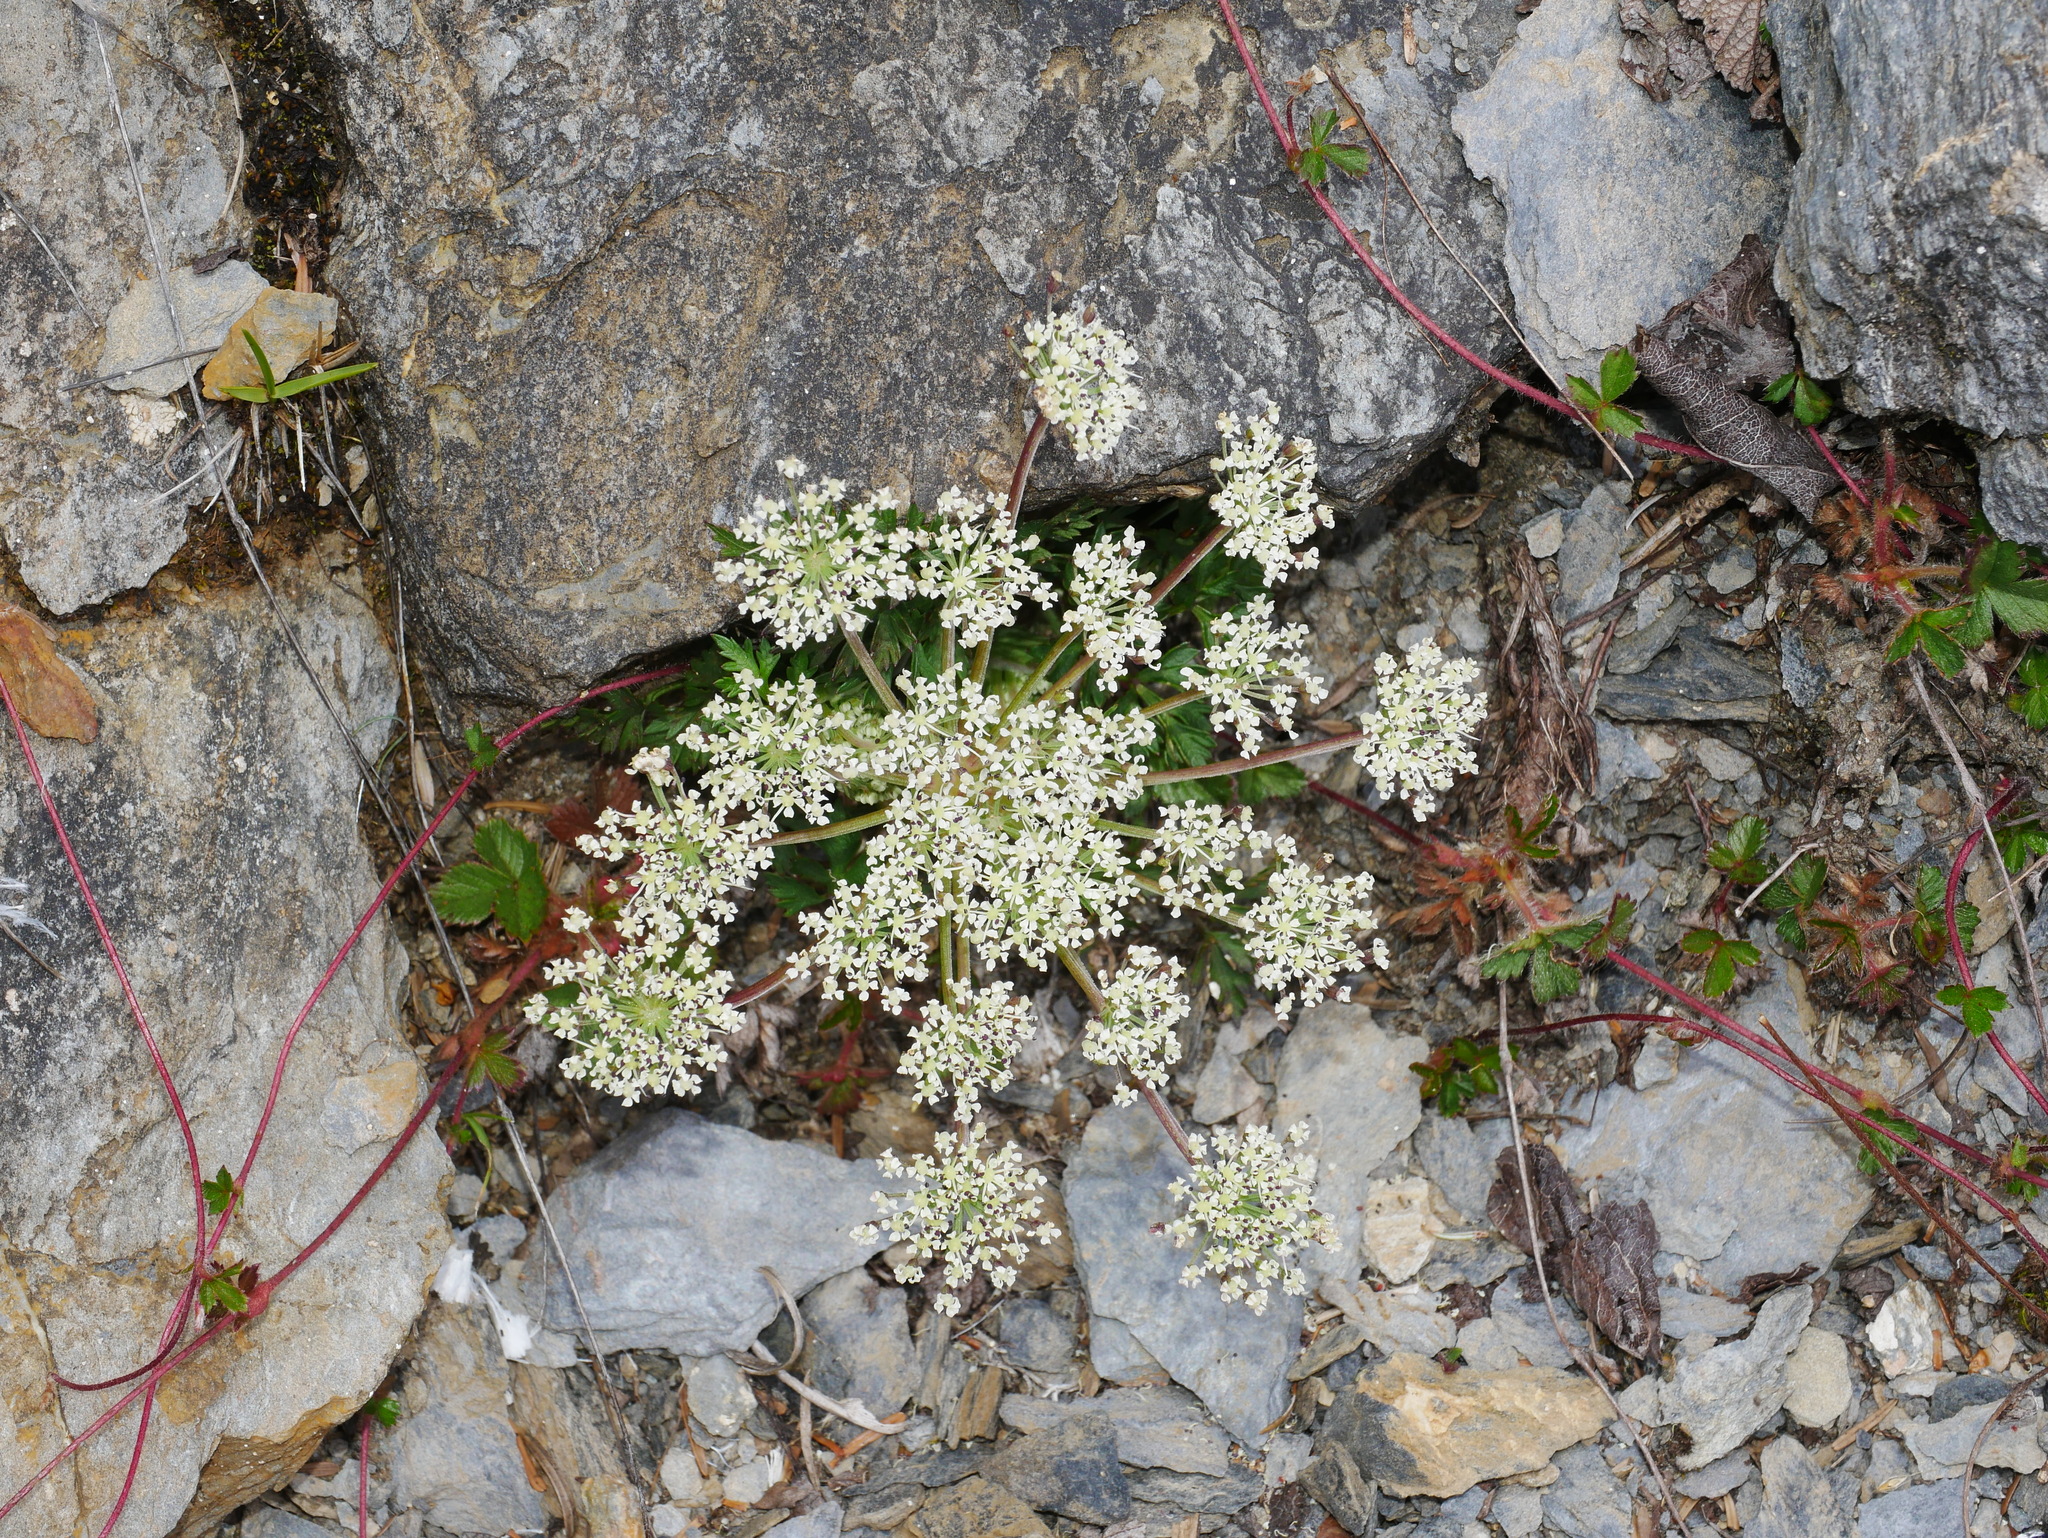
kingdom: Plantae
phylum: Tracheophyta
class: Magnoliopsida
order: Apiales
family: Apiaceae
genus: Angelica
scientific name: Angelica morii
